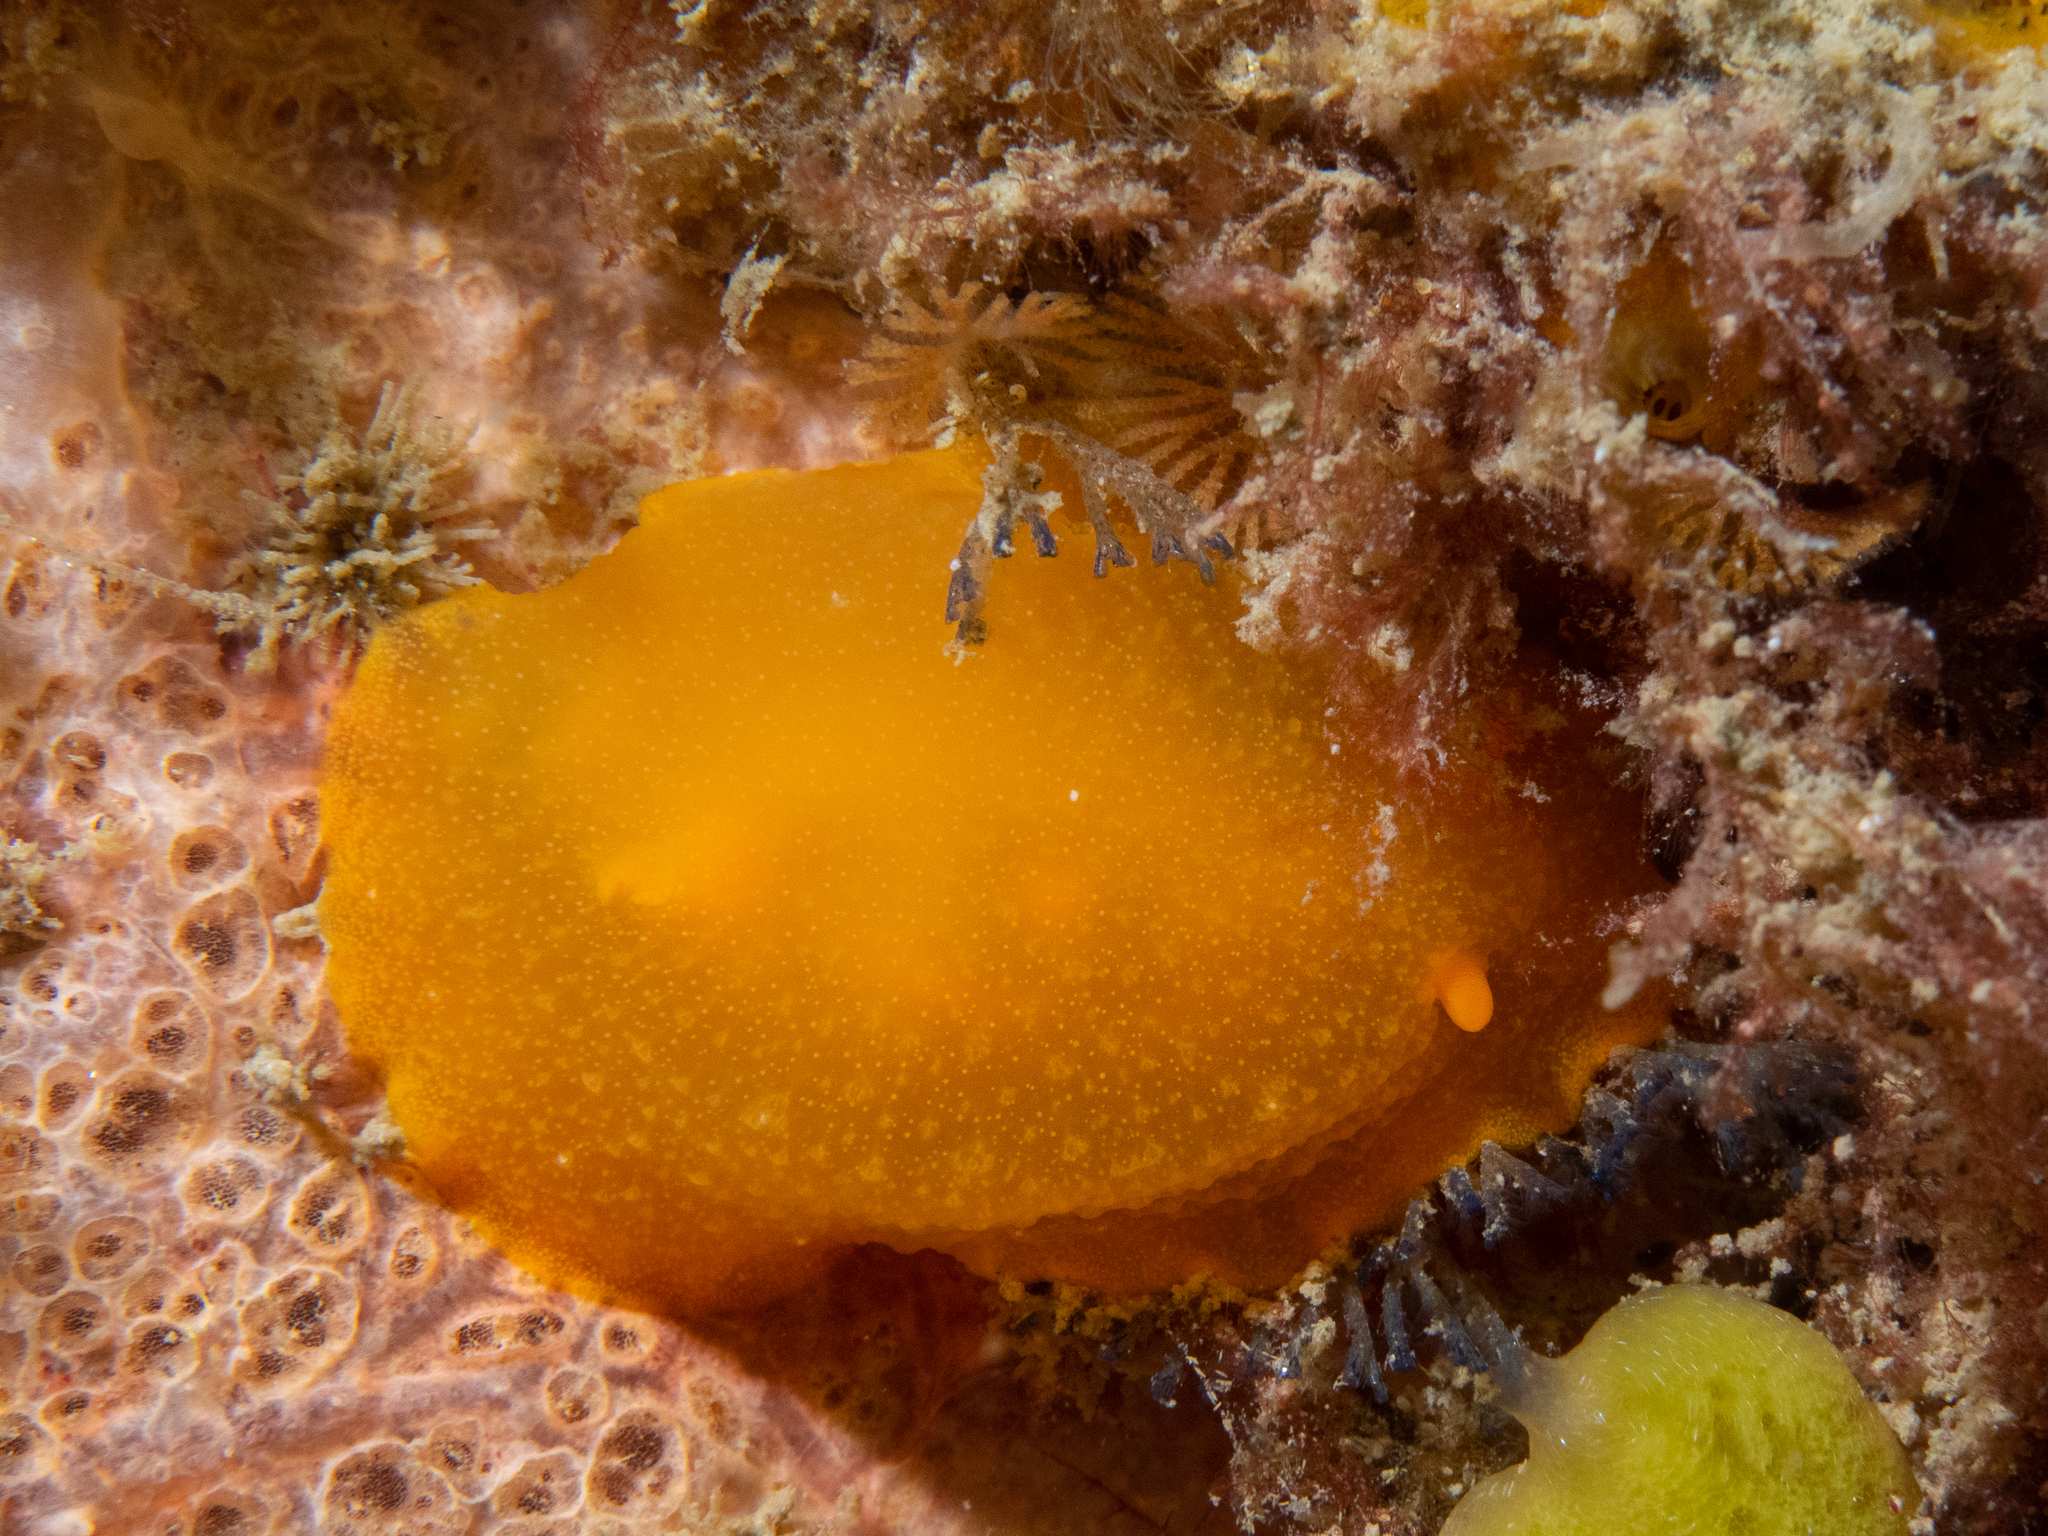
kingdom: Animalia
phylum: Mollusca
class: Gastropoda
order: Nudibranchia
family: Dendrodorididae
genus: Doriopsilla
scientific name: Doriopsilla carneola
